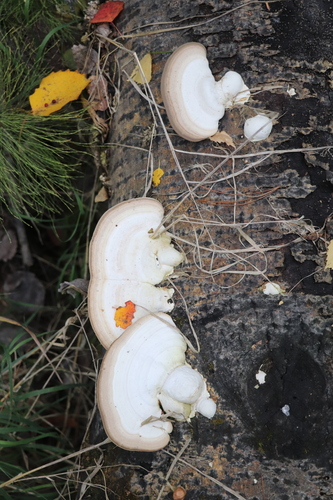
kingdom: Fungi
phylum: Basidiomycota
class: Agaricomycetes
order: Polyporales
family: Polyporaceae
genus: Trametes
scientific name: Trametes gibbosa
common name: Lumpy bracket
